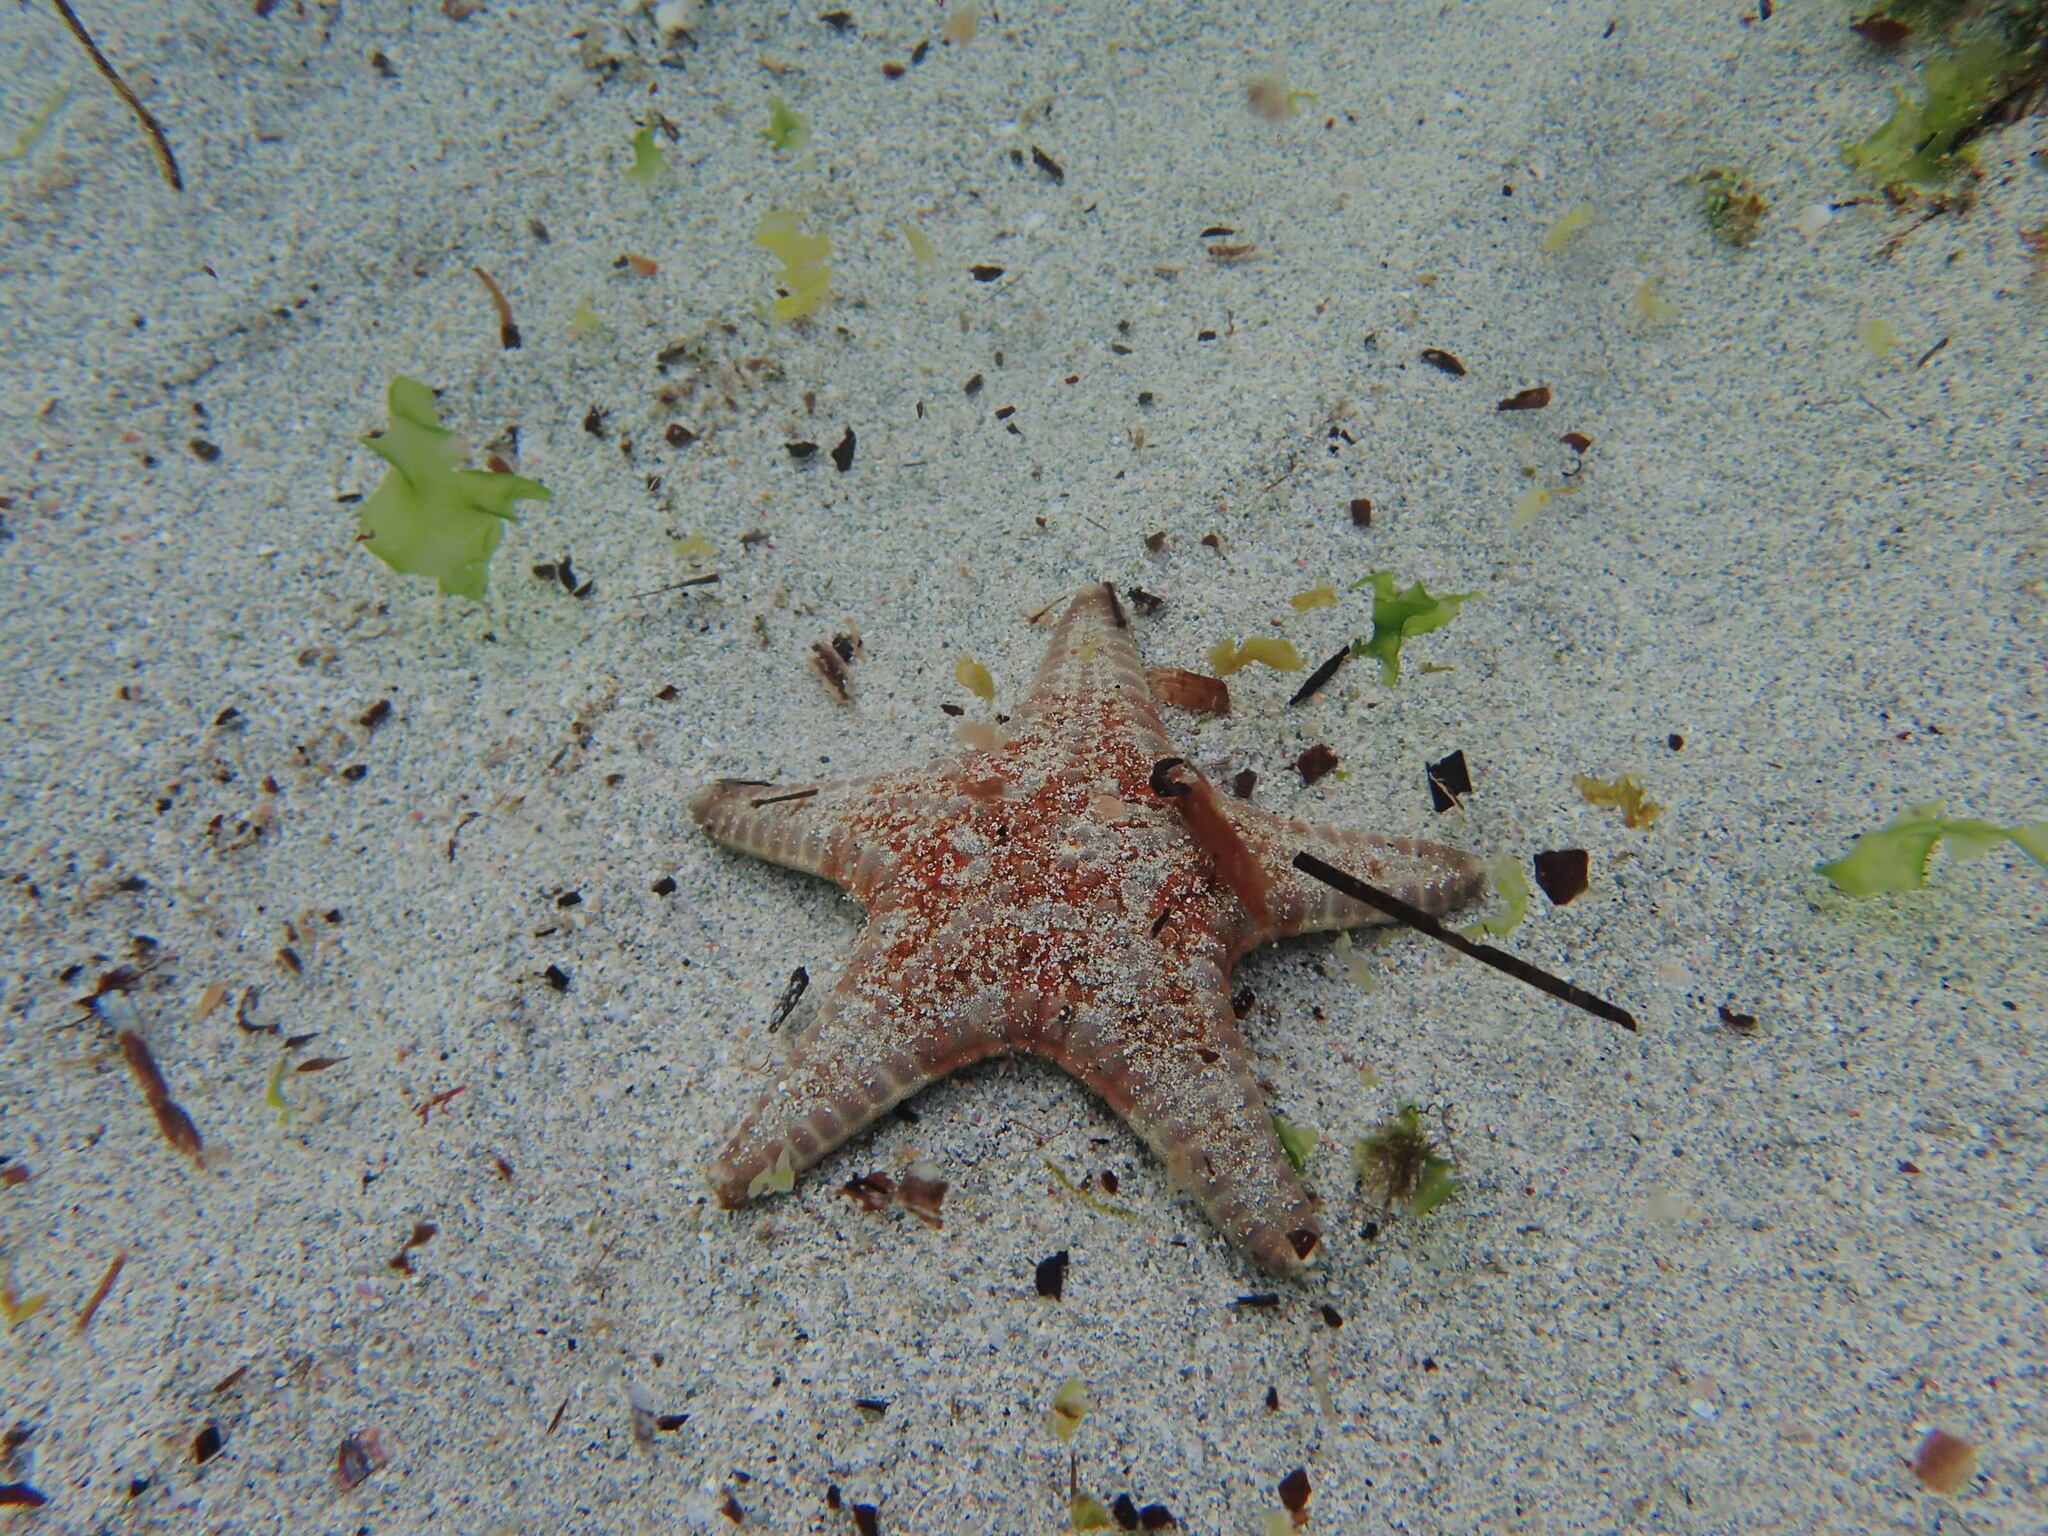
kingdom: Animalia
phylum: Echinodermata
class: Asteroidea
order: Valvatida
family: Goniasteridae
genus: Goniodiscaster
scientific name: Goniodiscaster seriatus
